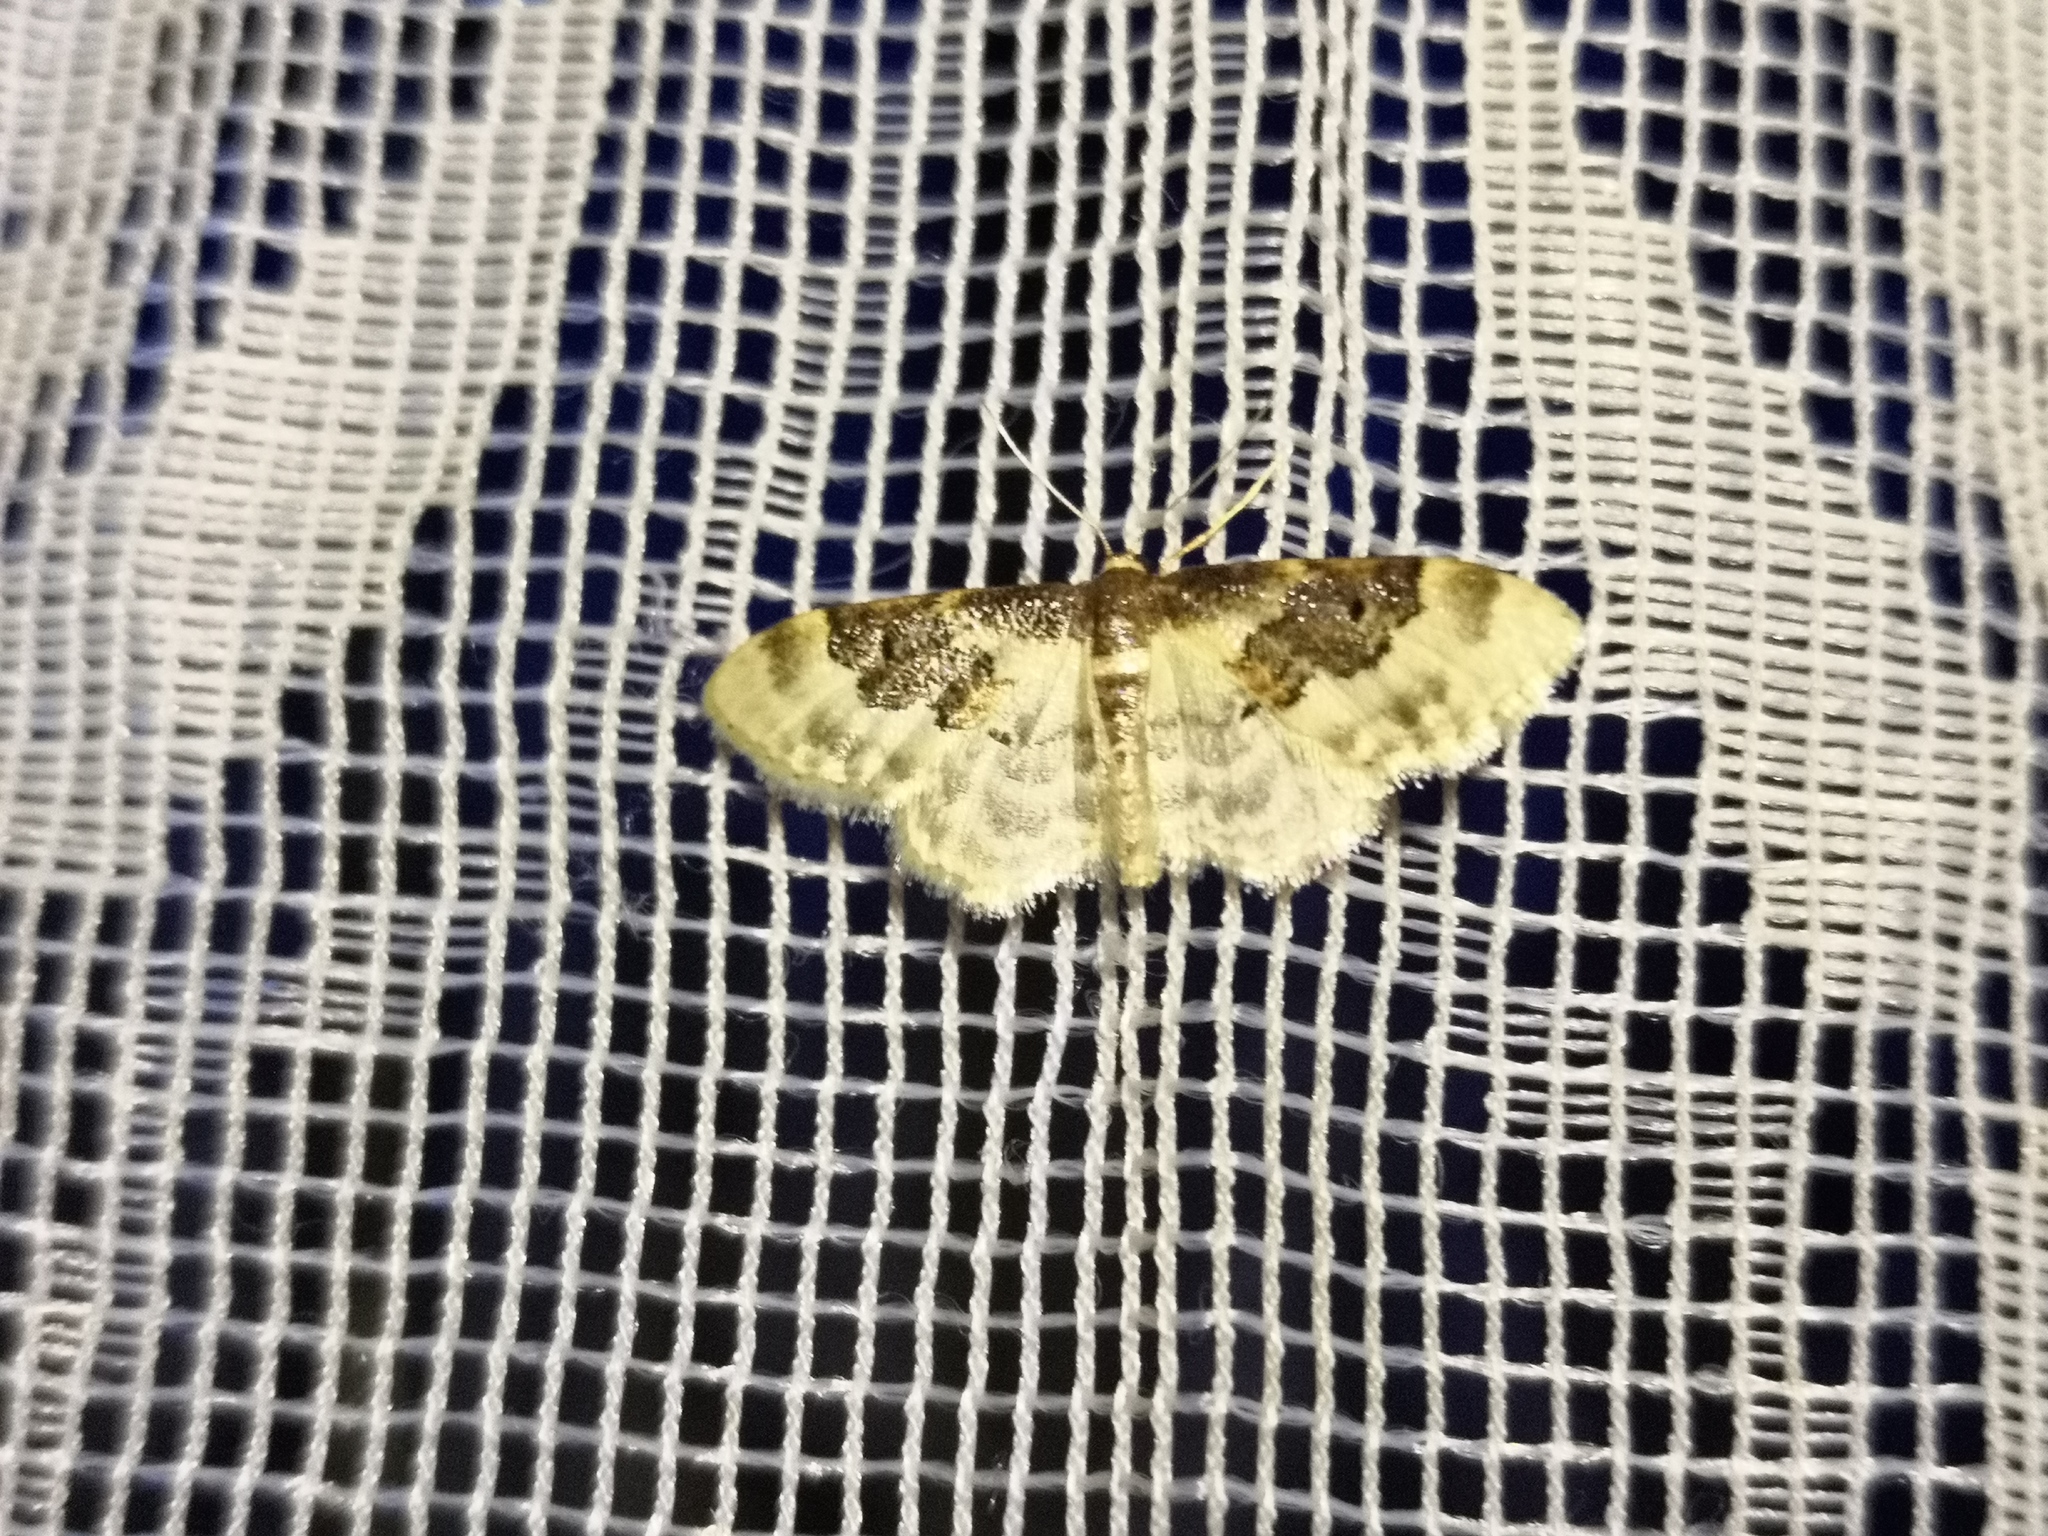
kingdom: Animalia
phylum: Arthropoda
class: Insecta
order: Lepidoptera
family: Geometridae
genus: Idaea
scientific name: Idaea rusticata
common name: Least carpet
